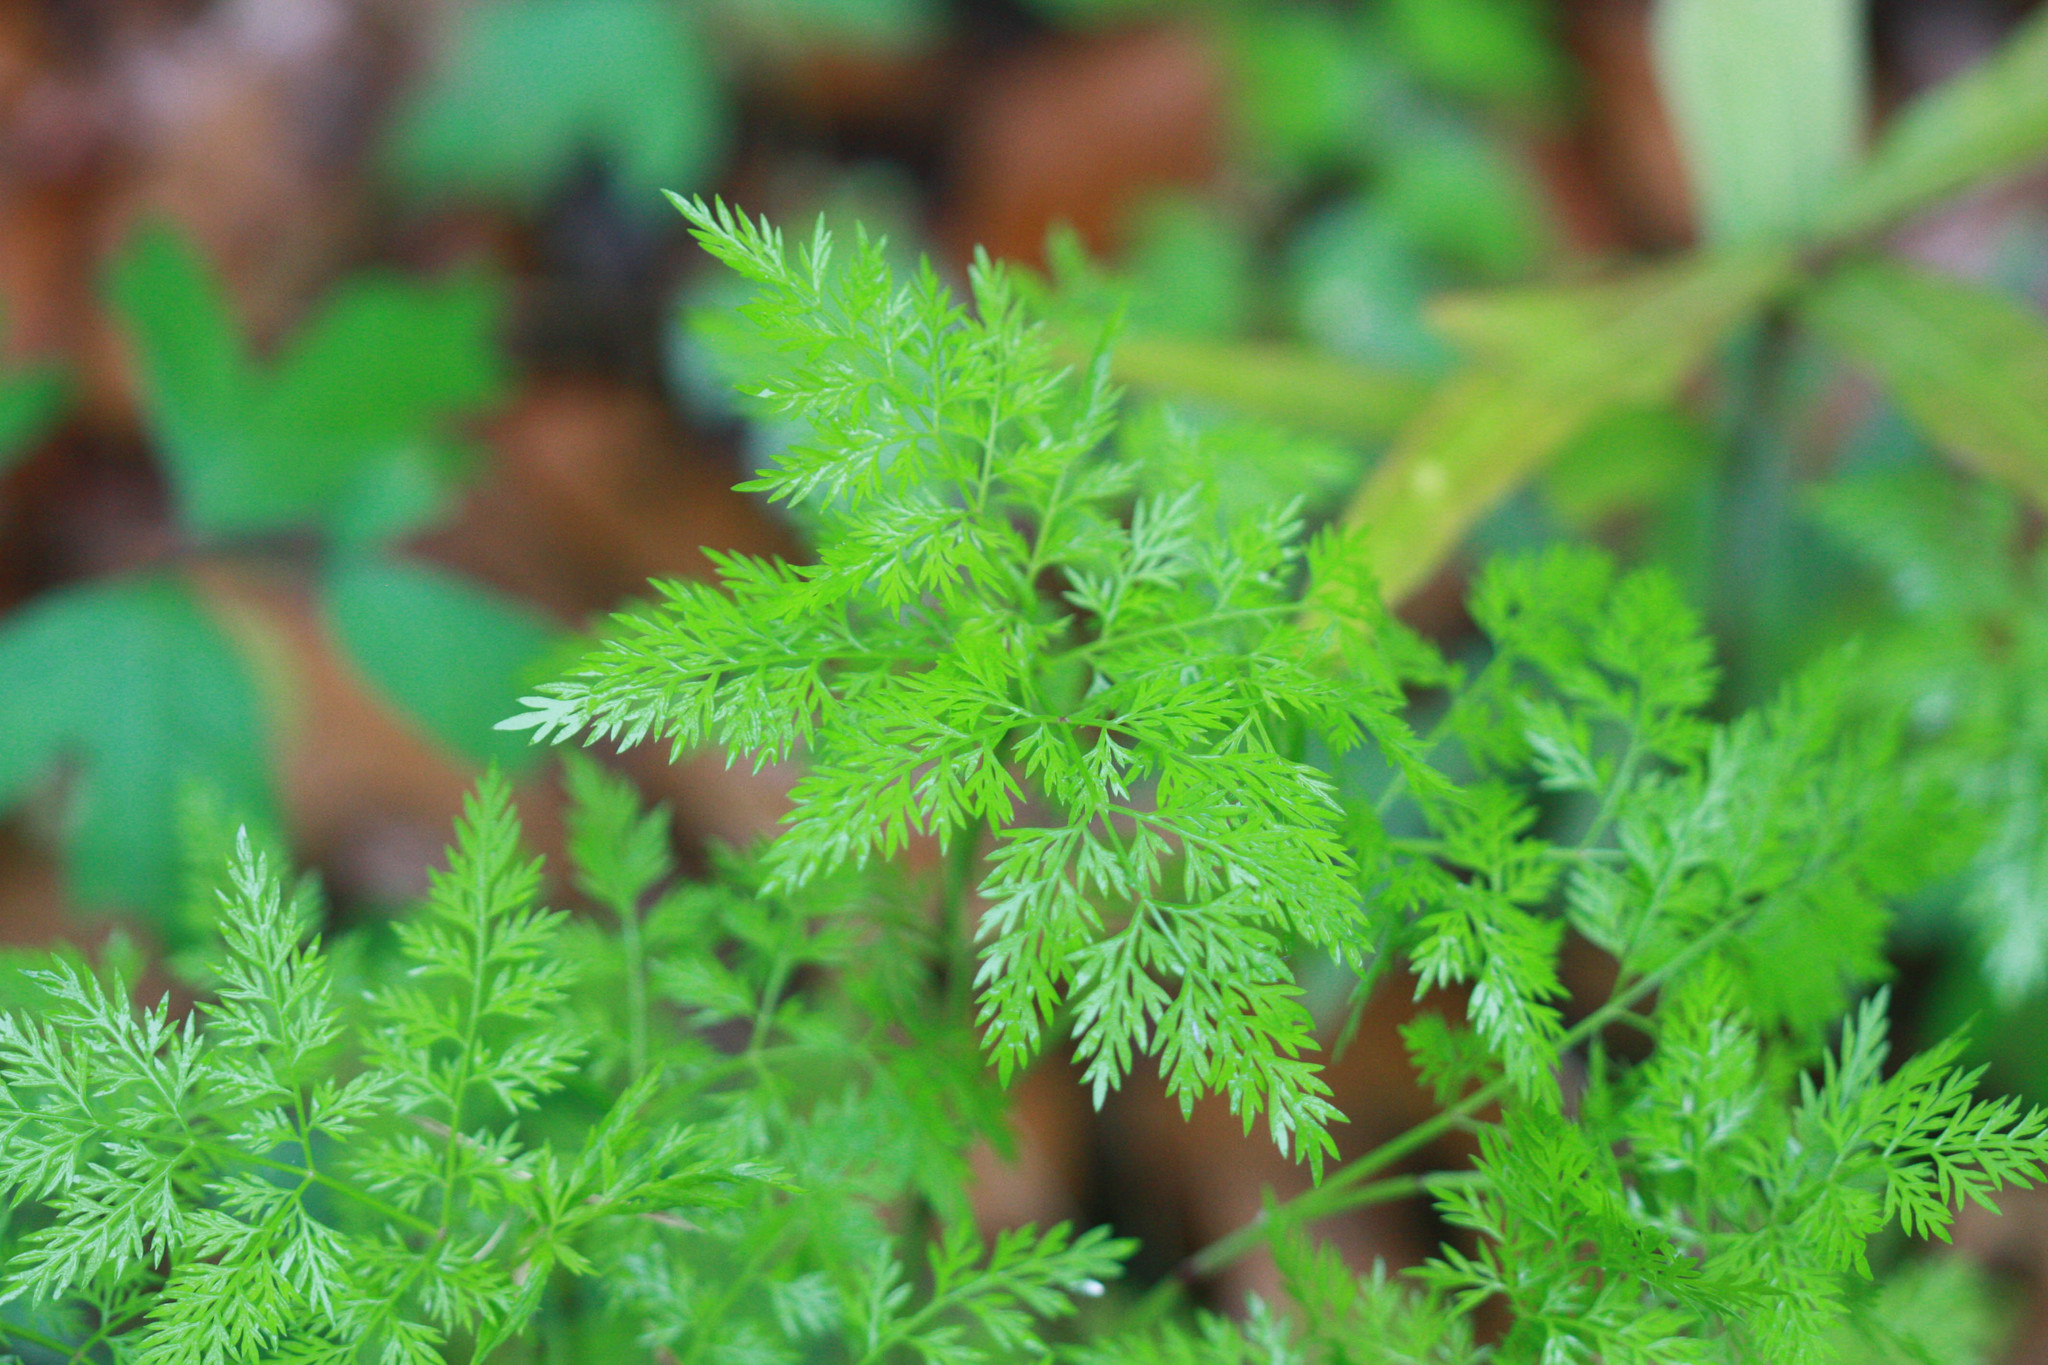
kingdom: Plantae
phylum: Tracheophyta
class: Magnoliopsida
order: Apiales
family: Apiaceae
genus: Trepocarpus
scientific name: Trepocarpus aethusae
